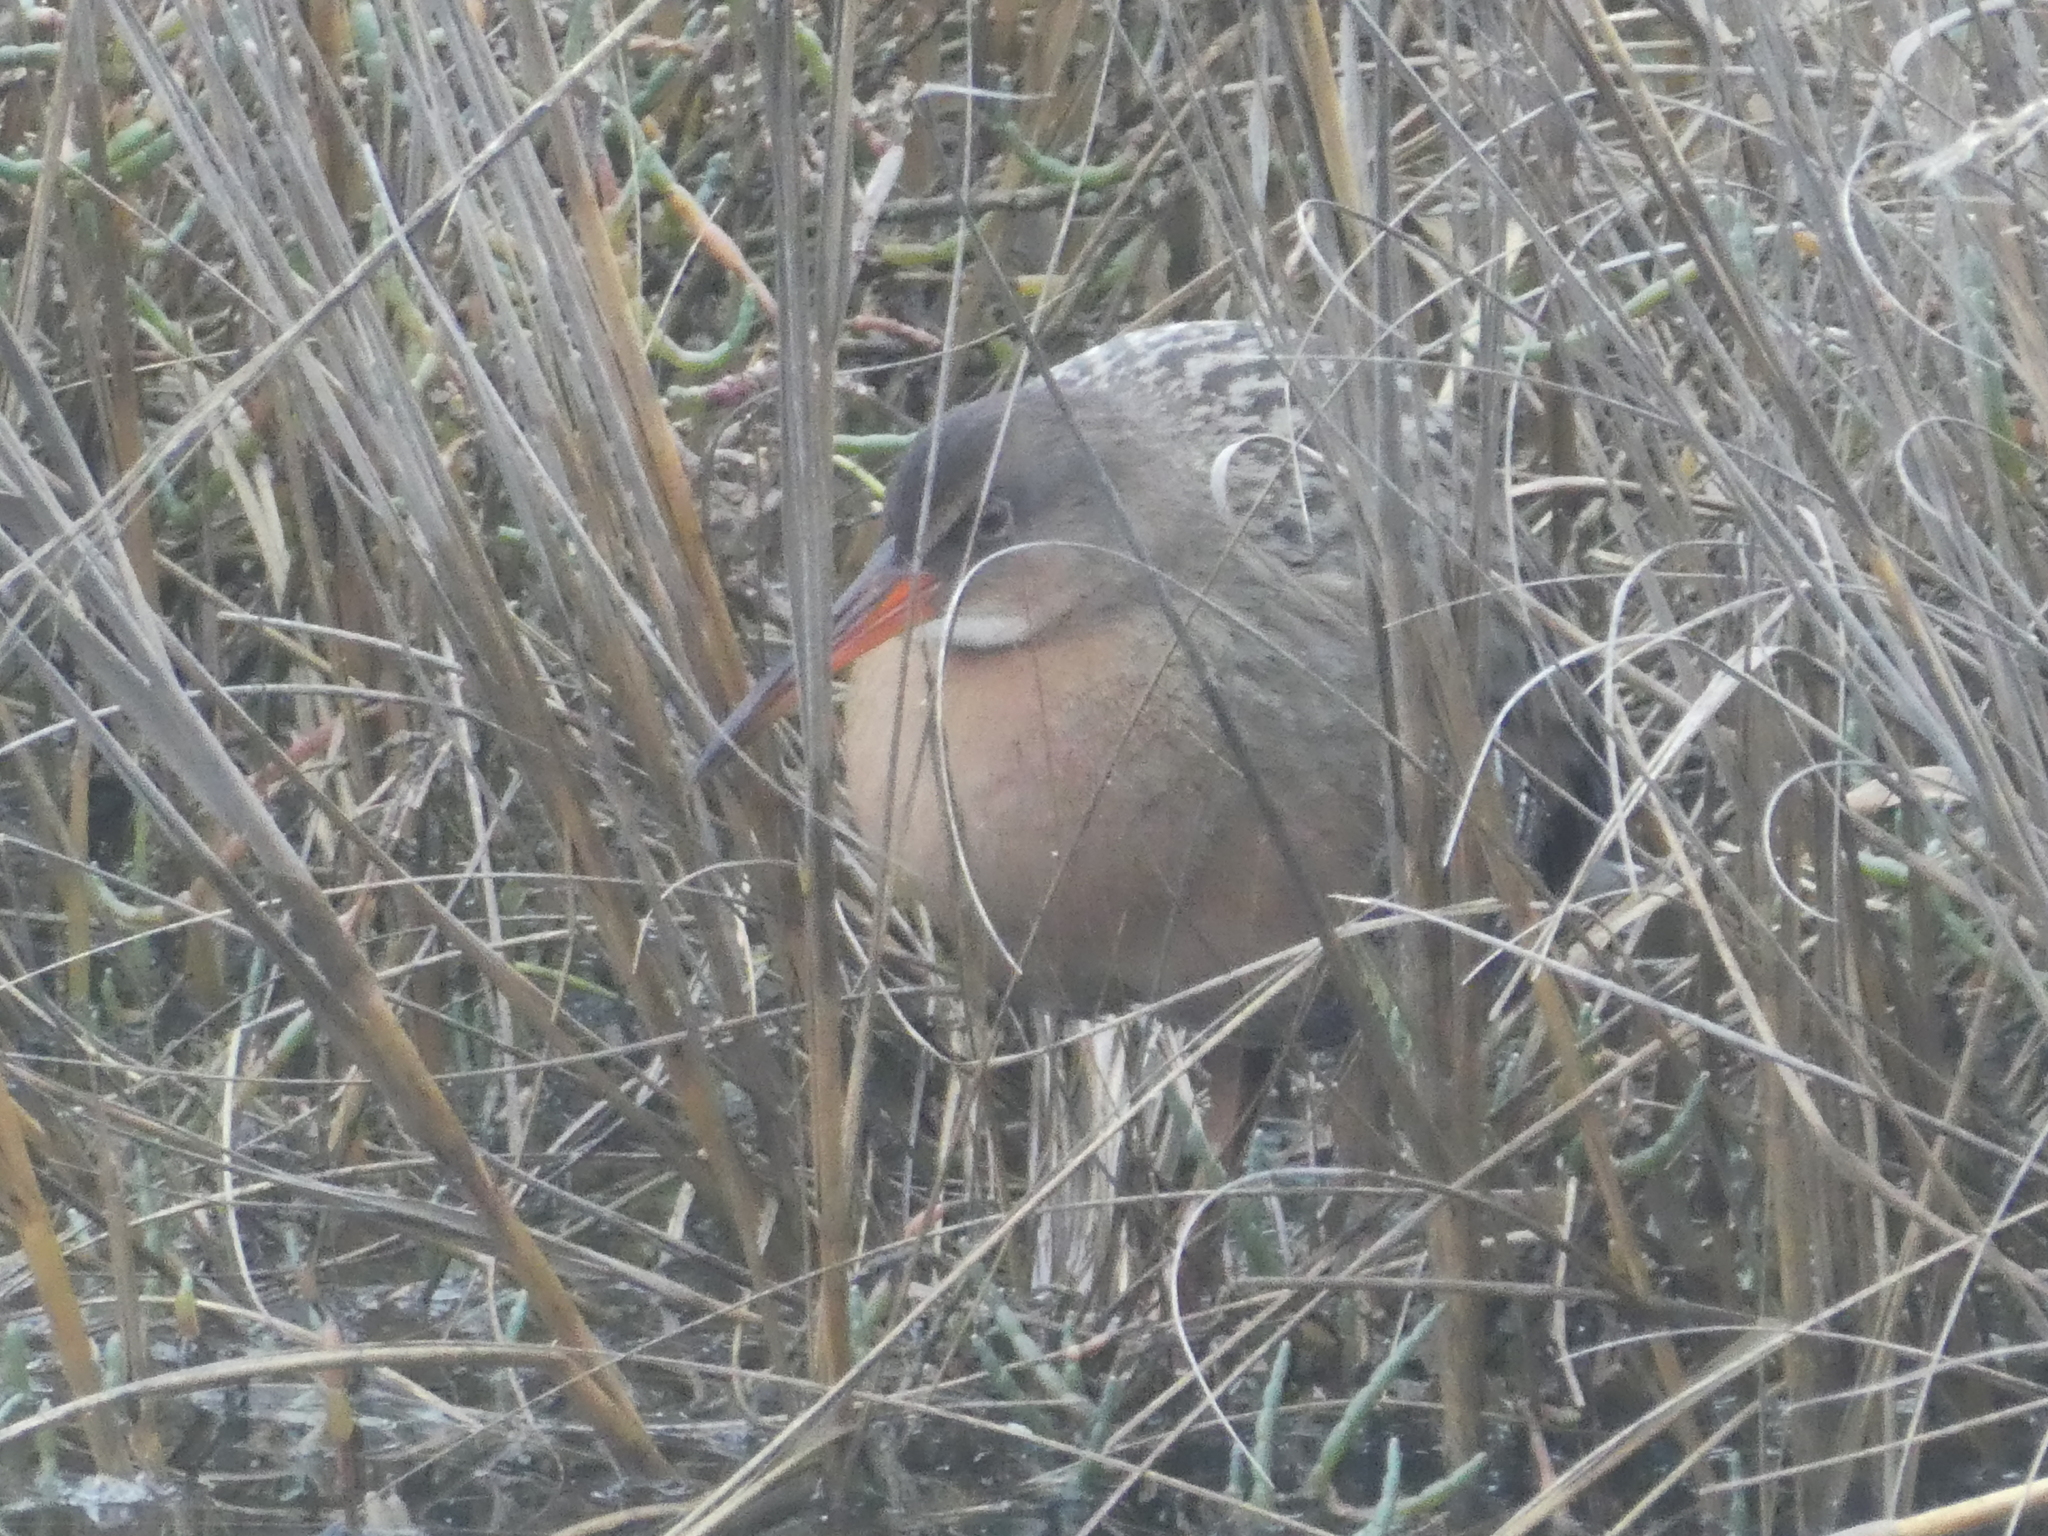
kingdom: Animalia
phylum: Chordata
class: Aves
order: Gruiformes
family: Rallidae
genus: Rallus
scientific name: Rallus obsoletus
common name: Ridgway's rail
